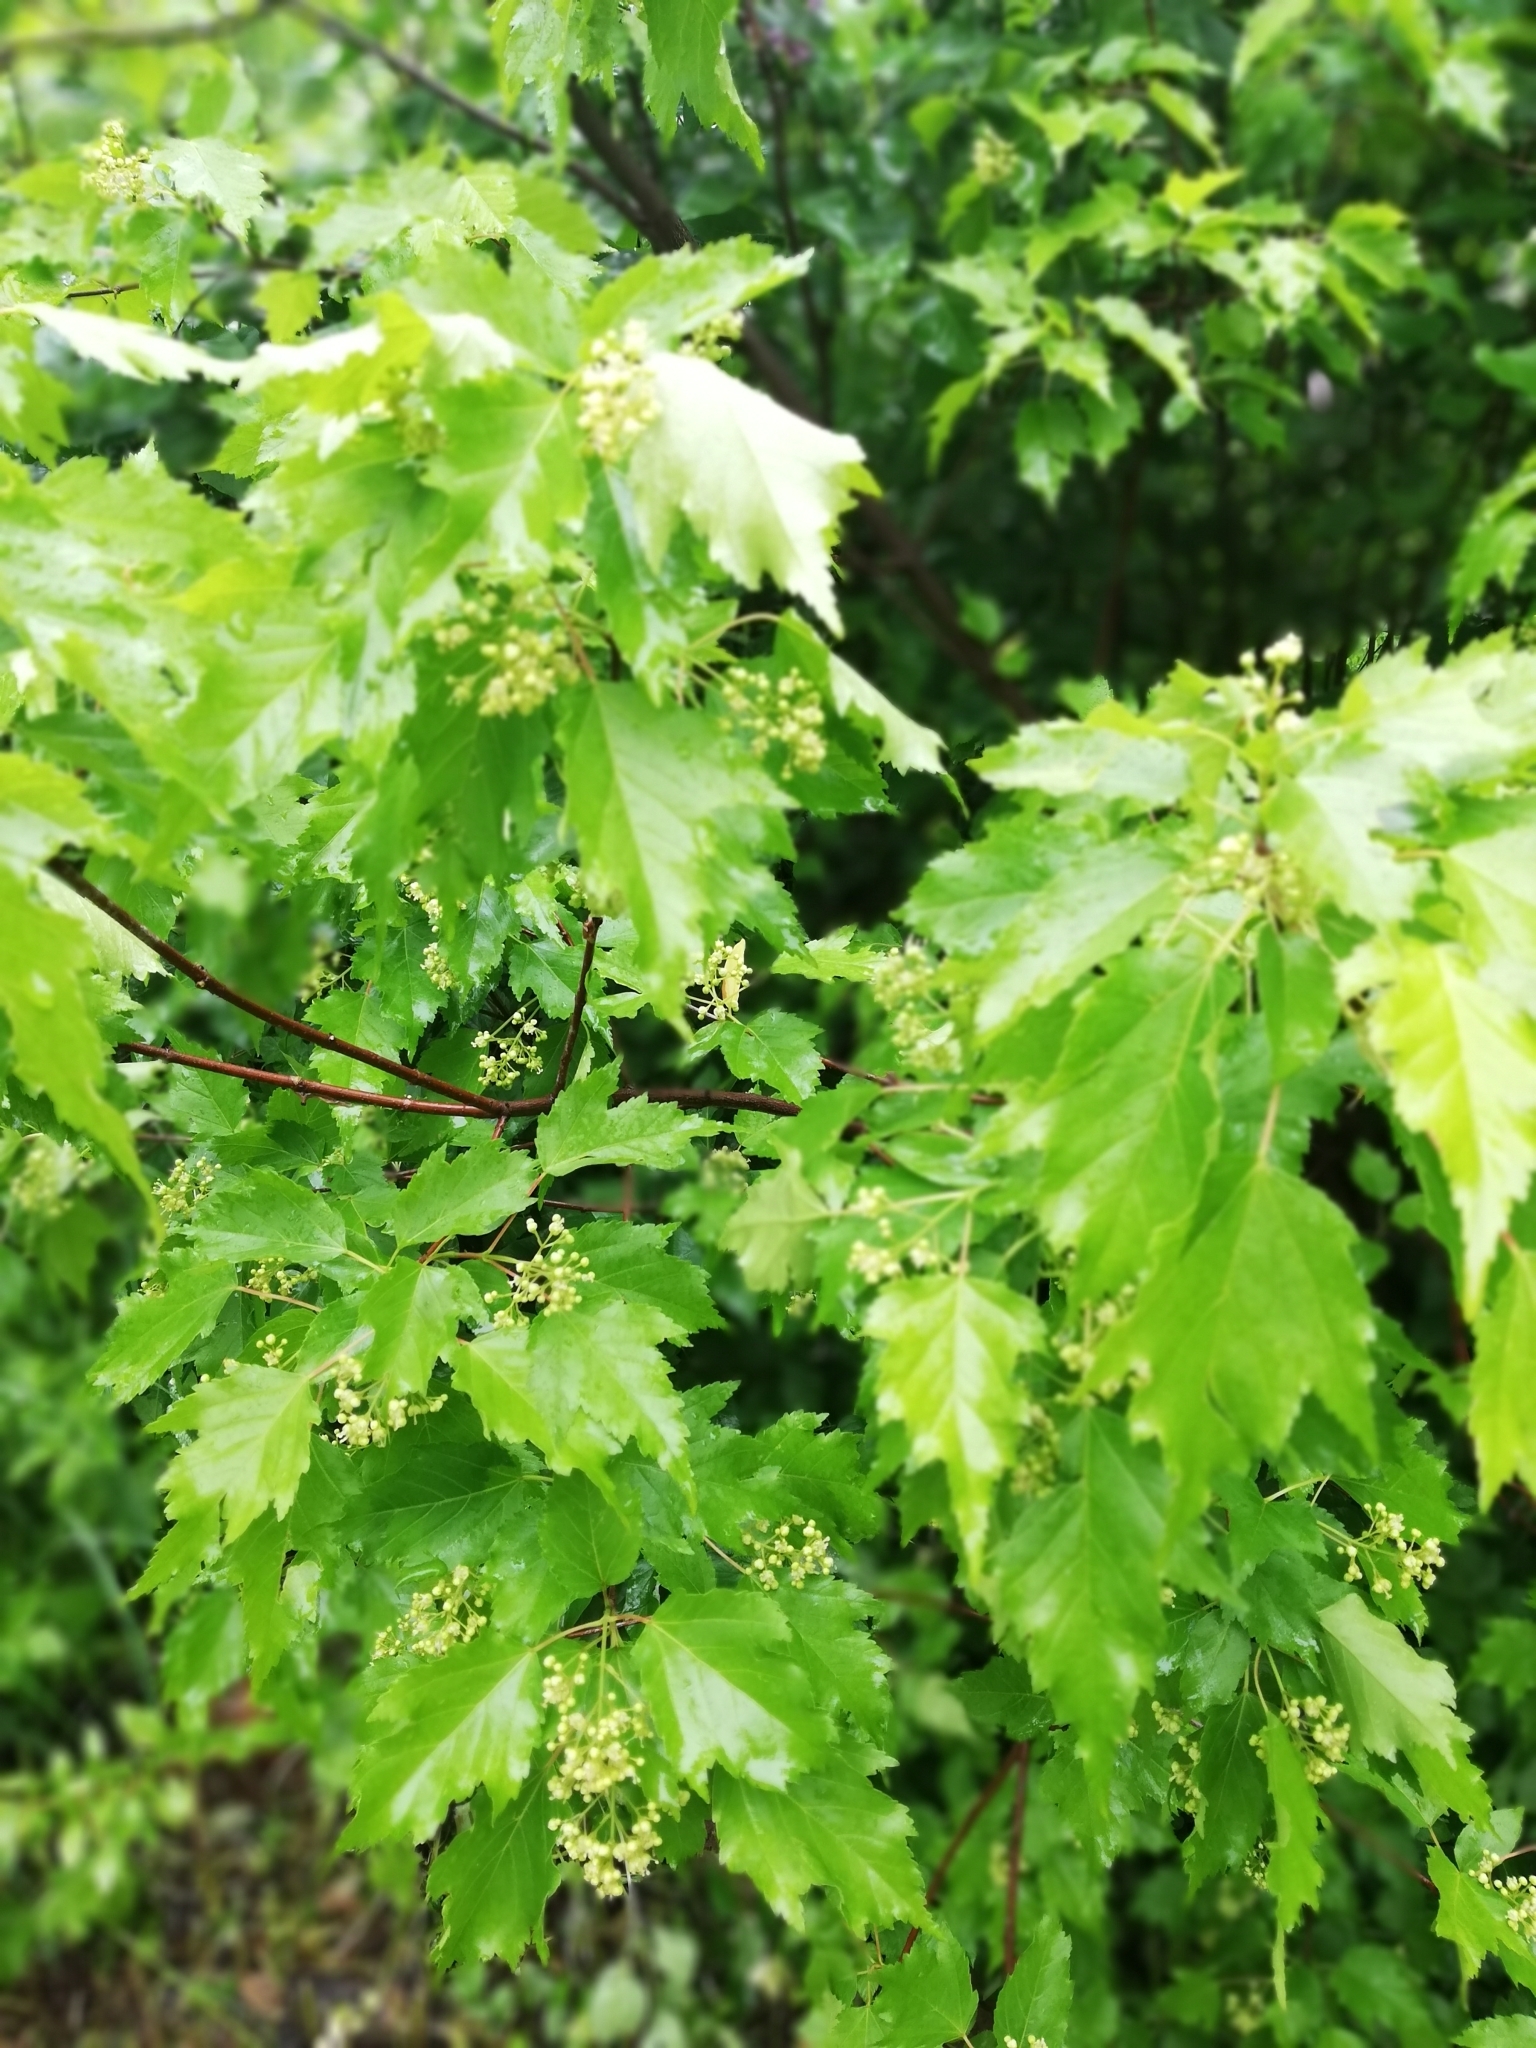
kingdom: Plantae
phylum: Tracheophyta
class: Magnoliopsida
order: Sapindales
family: Sapindaceae
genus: Acer
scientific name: Acer tataricum
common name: Tartar maple
